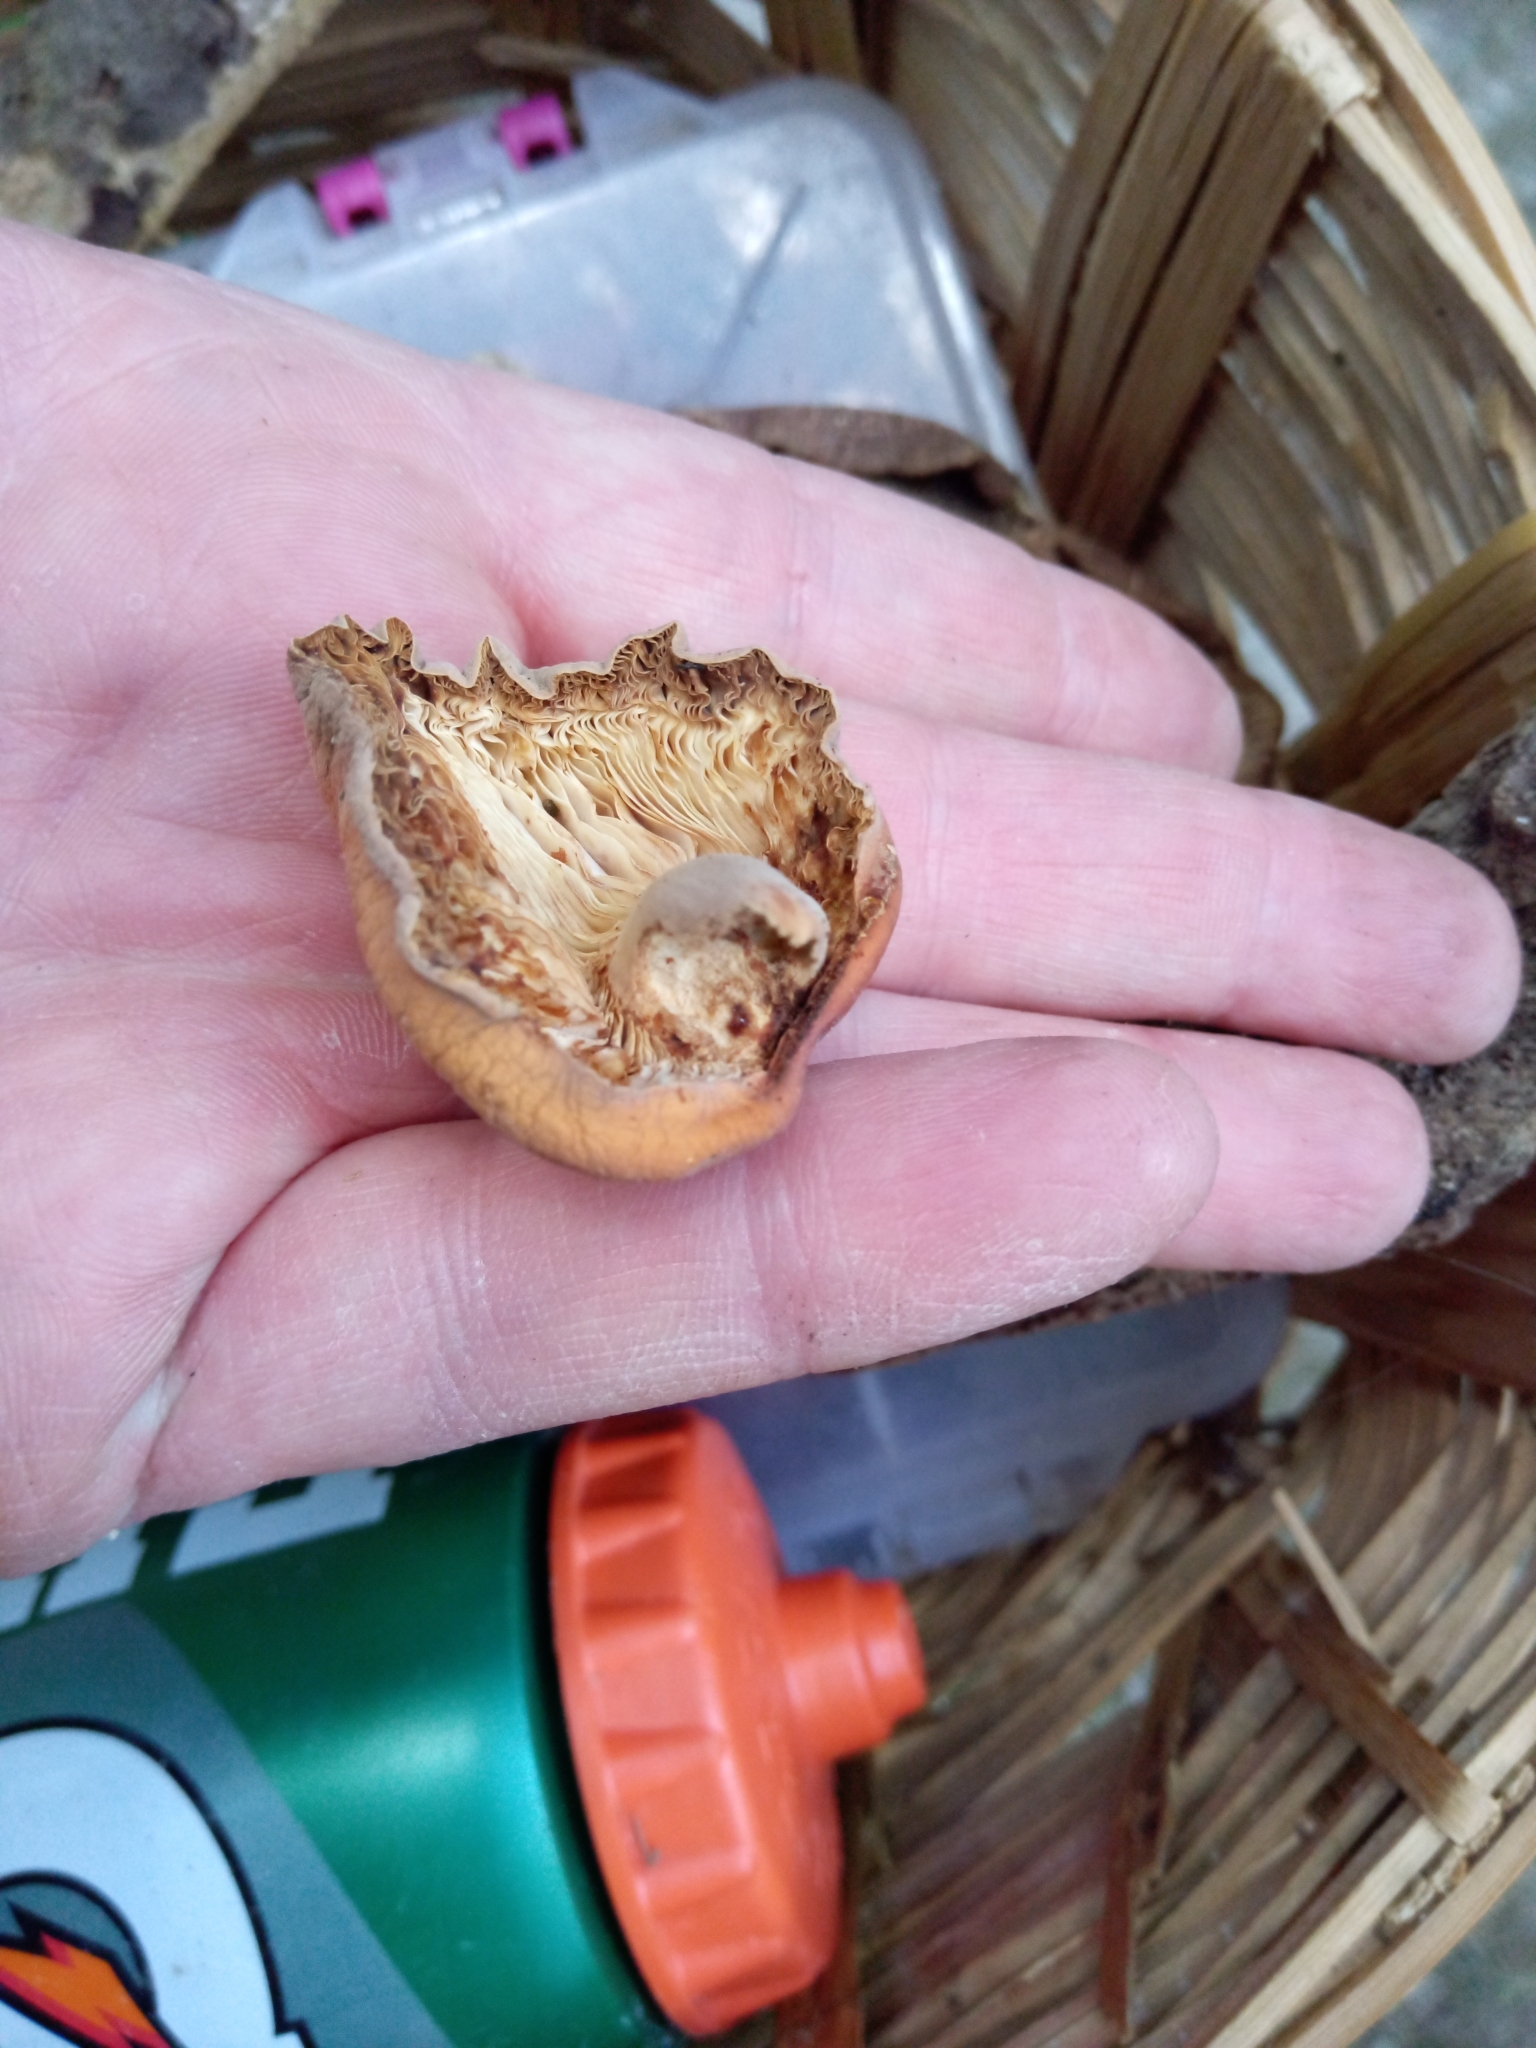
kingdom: Fungi
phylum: Basidiomycota
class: Agaricomycetes
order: Russulales
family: Russulaceae
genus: Lactifluus
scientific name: Lactifluus volemus
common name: Fishy milkcap
